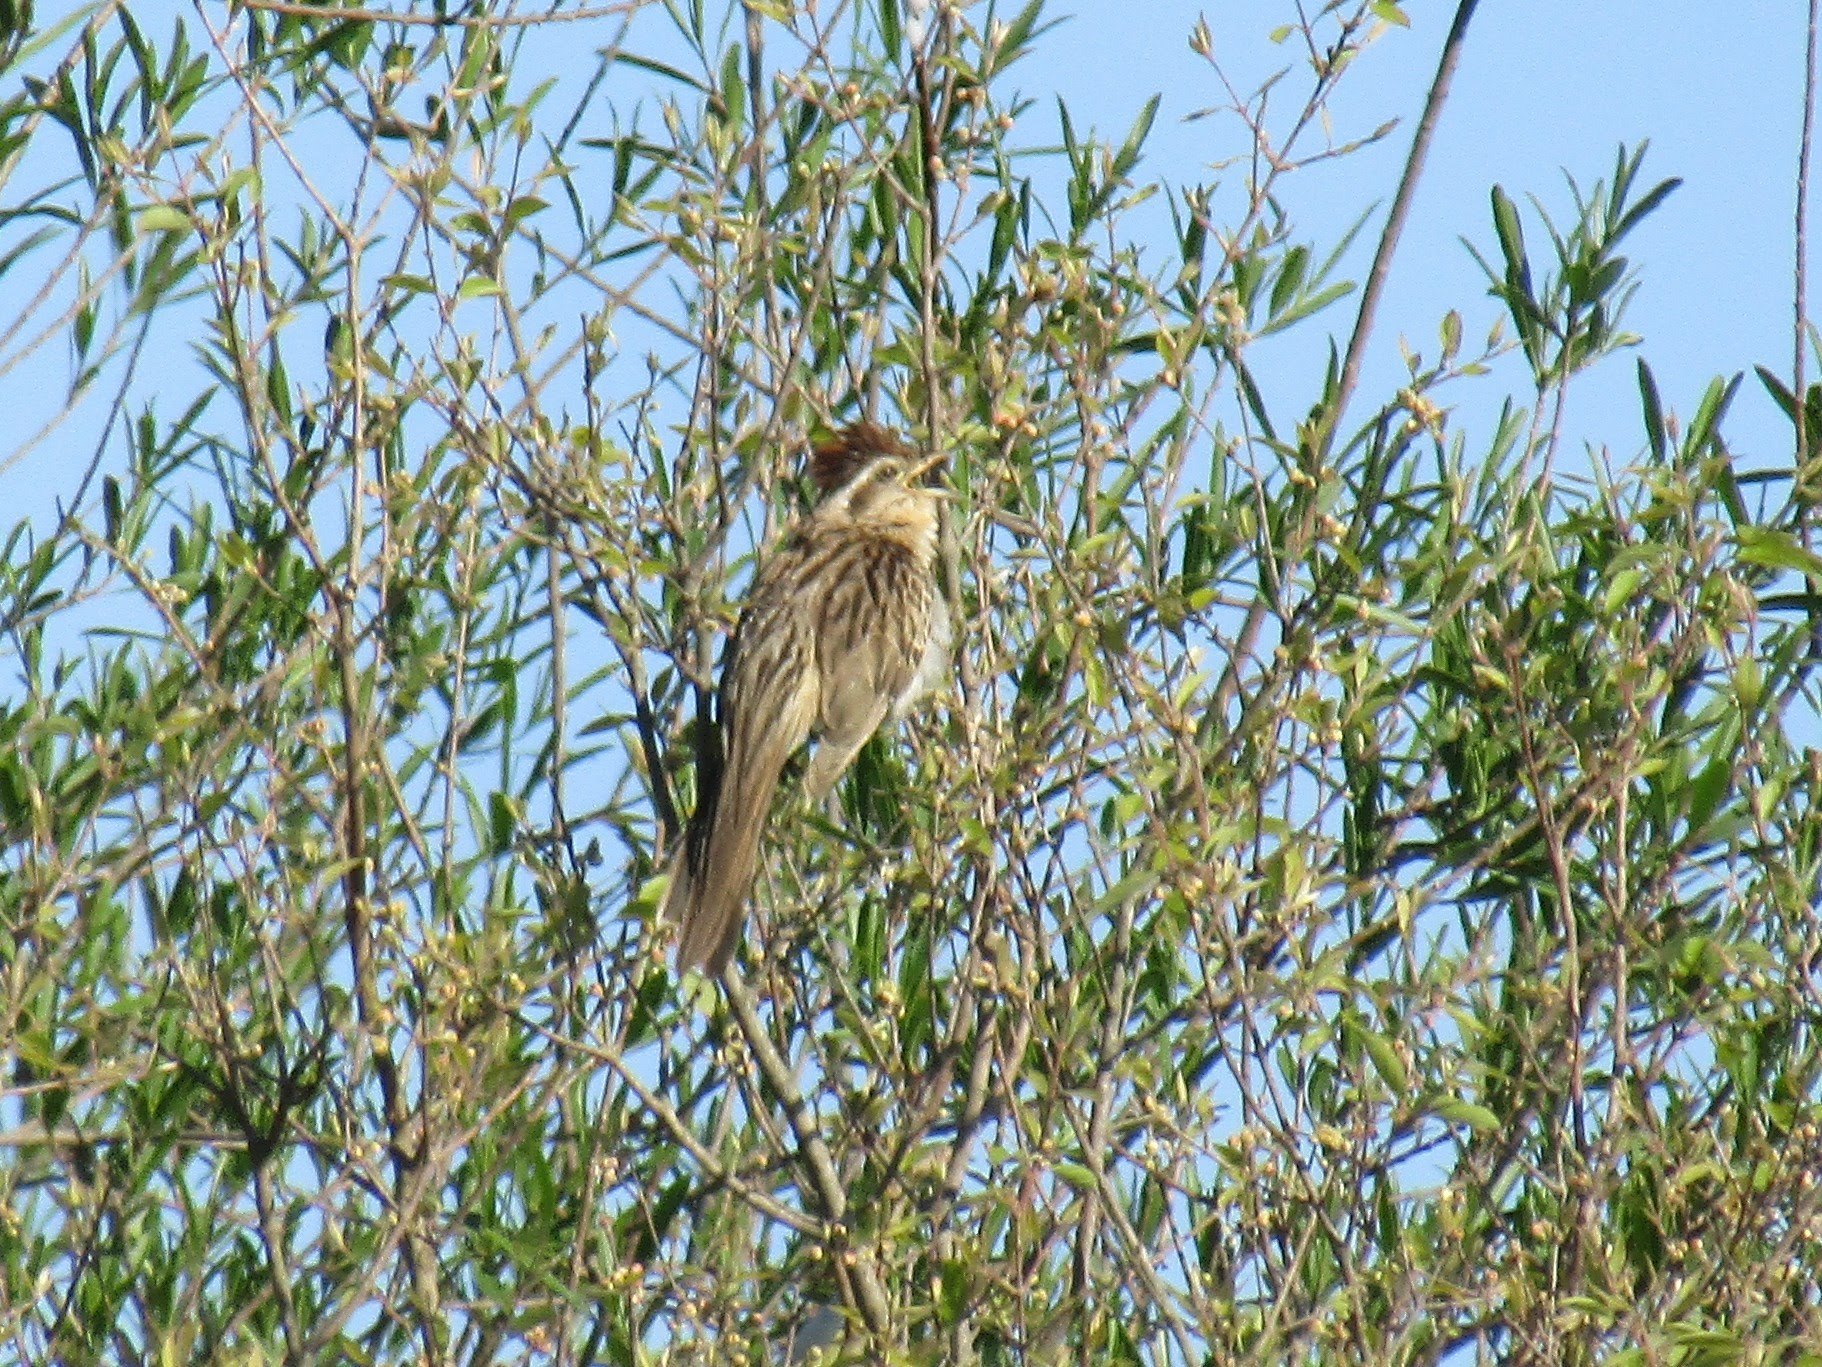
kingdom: Animalia
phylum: Chordata
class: Aves
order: Cuculiformes
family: Cuculidae
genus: Tapera
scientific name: Tapera naevia
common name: Striped cuckoo
